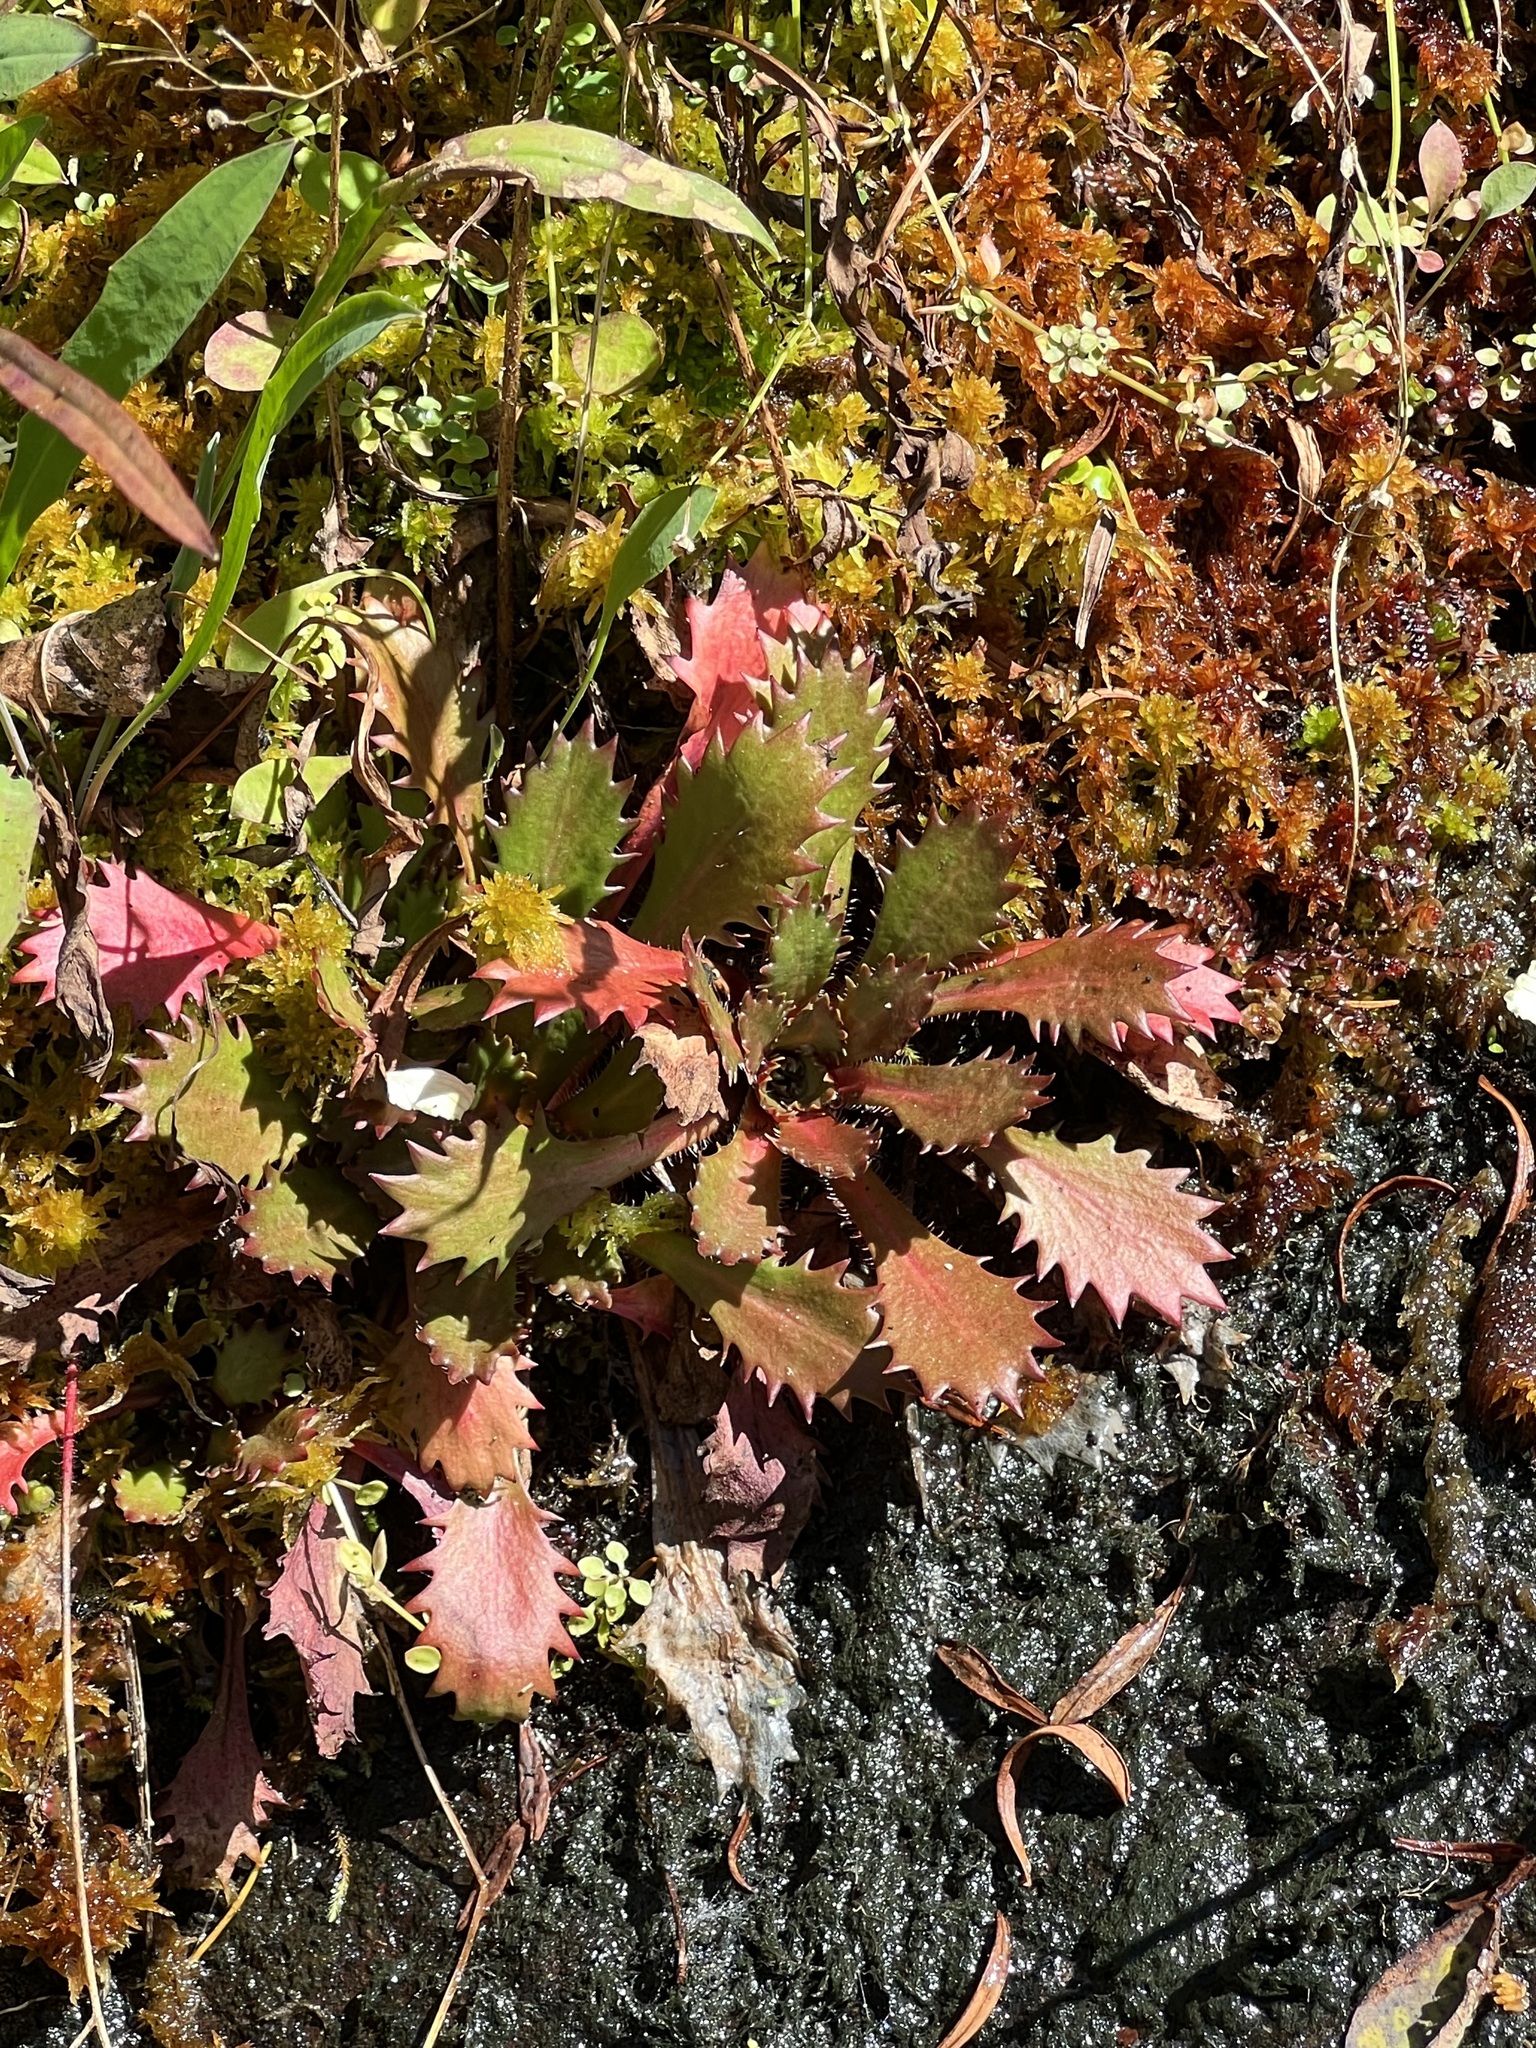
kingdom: Plantae
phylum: Tracheophyta
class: Magnoliopsida
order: Saxifragales
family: Saxifragaceae
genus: Micranthes
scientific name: Micranthes petiolaris
